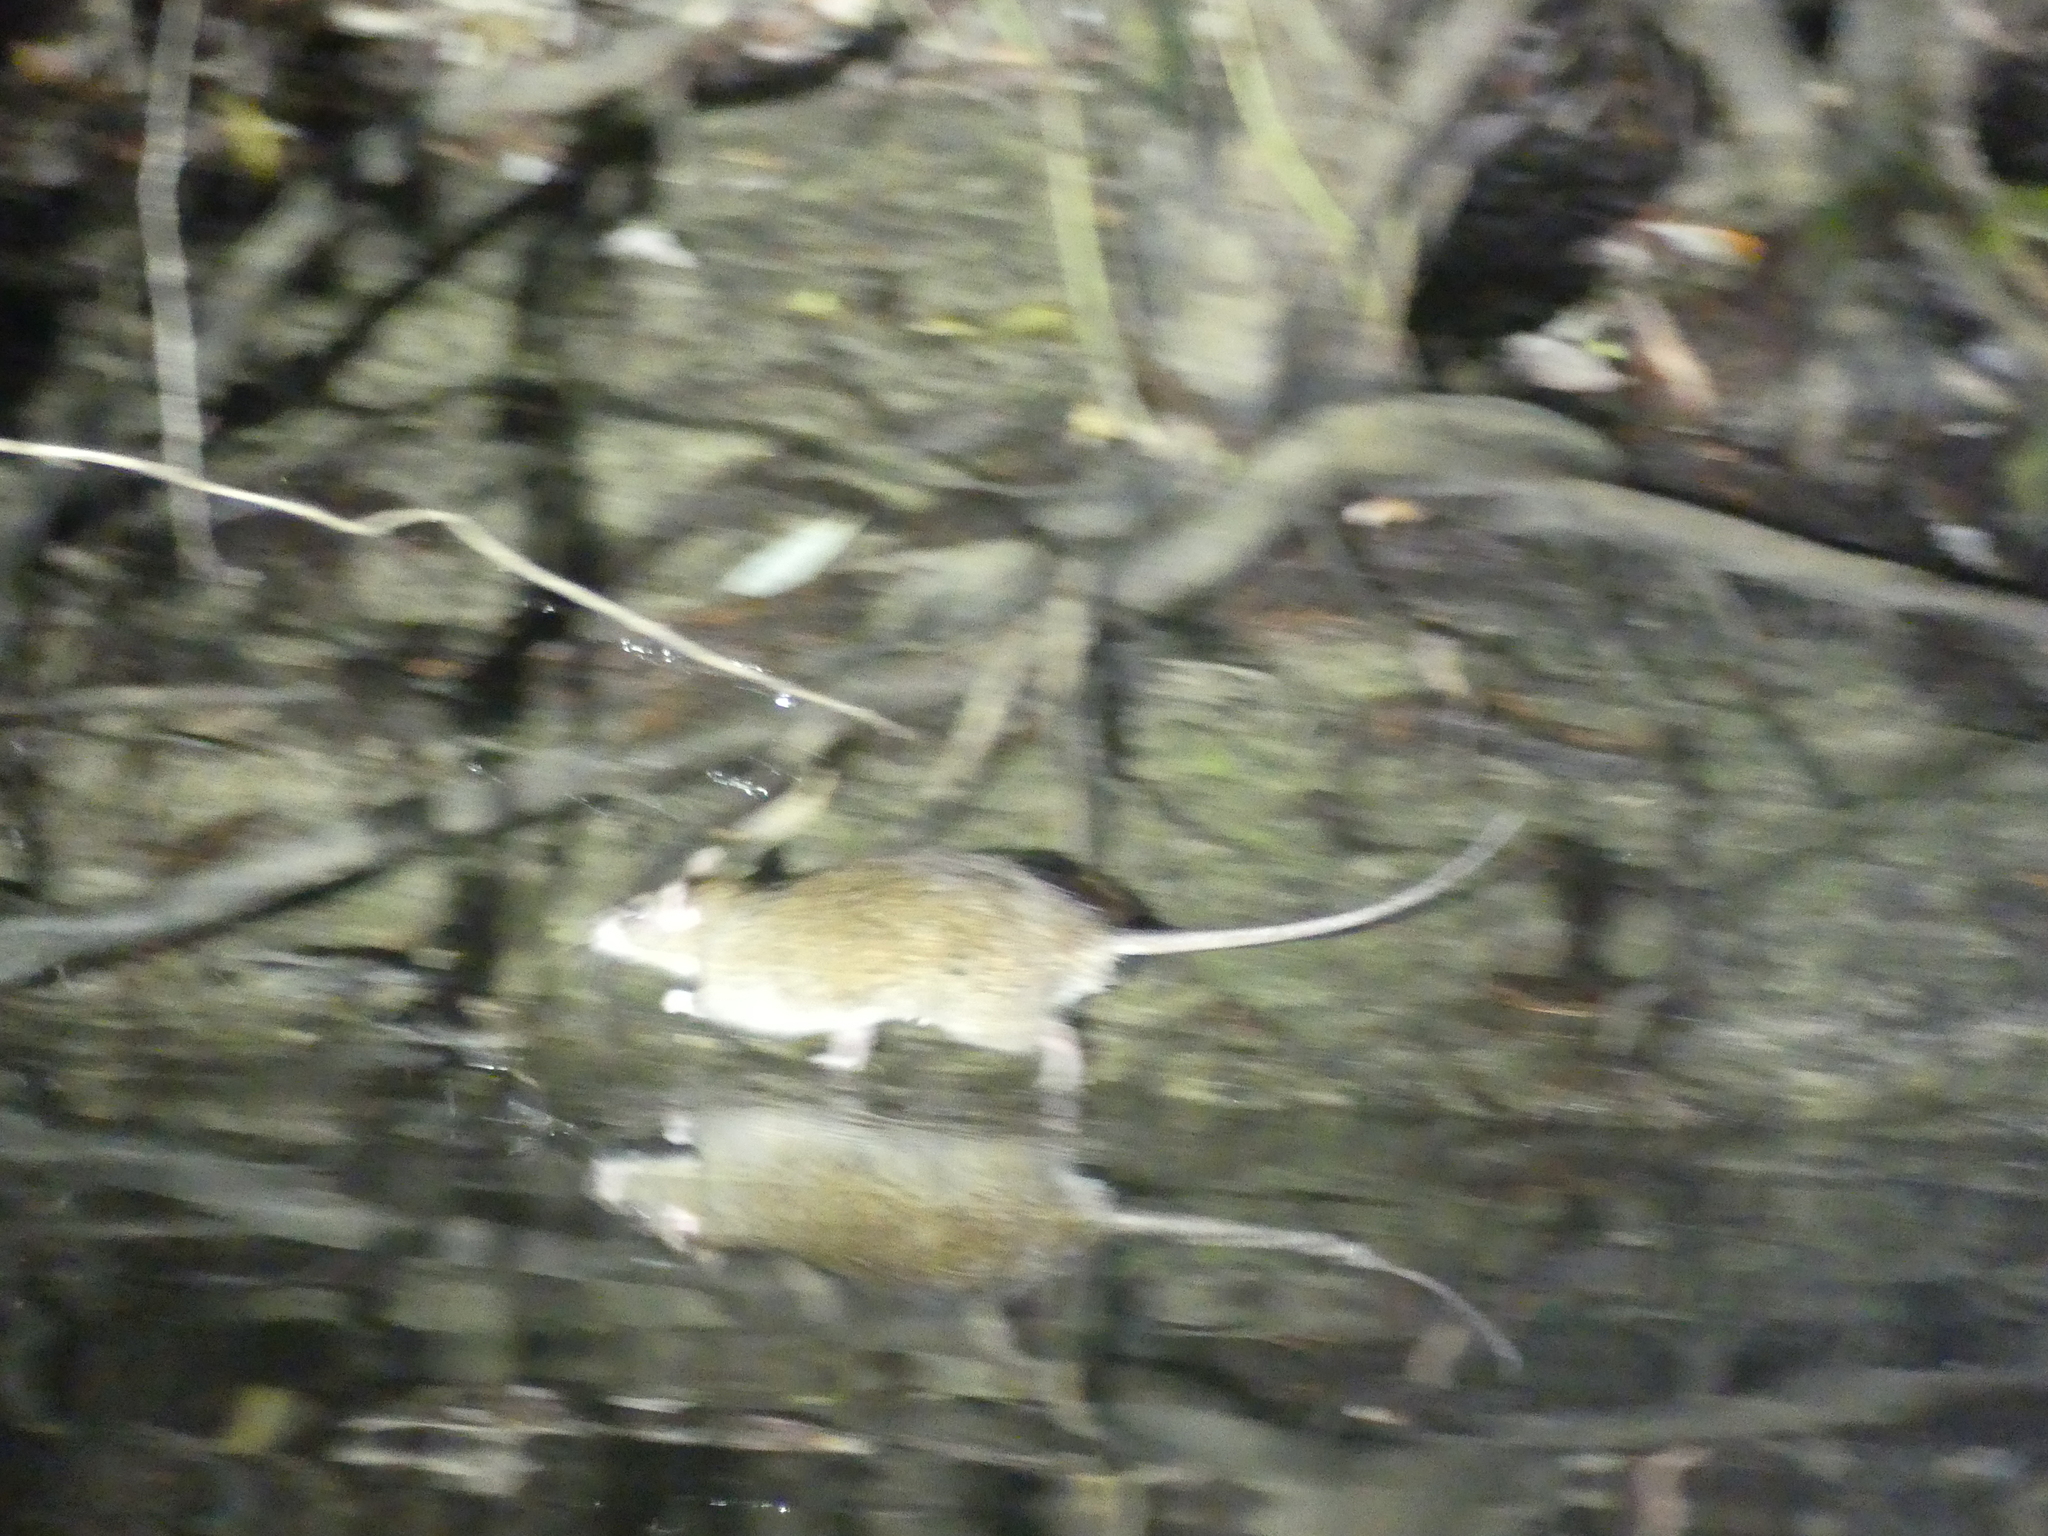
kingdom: Animalia
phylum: Chordata
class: Mammalia
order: Rodentia
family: Muridae
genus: Rattus
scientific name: Rattus norvegicus
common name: Brown rat
